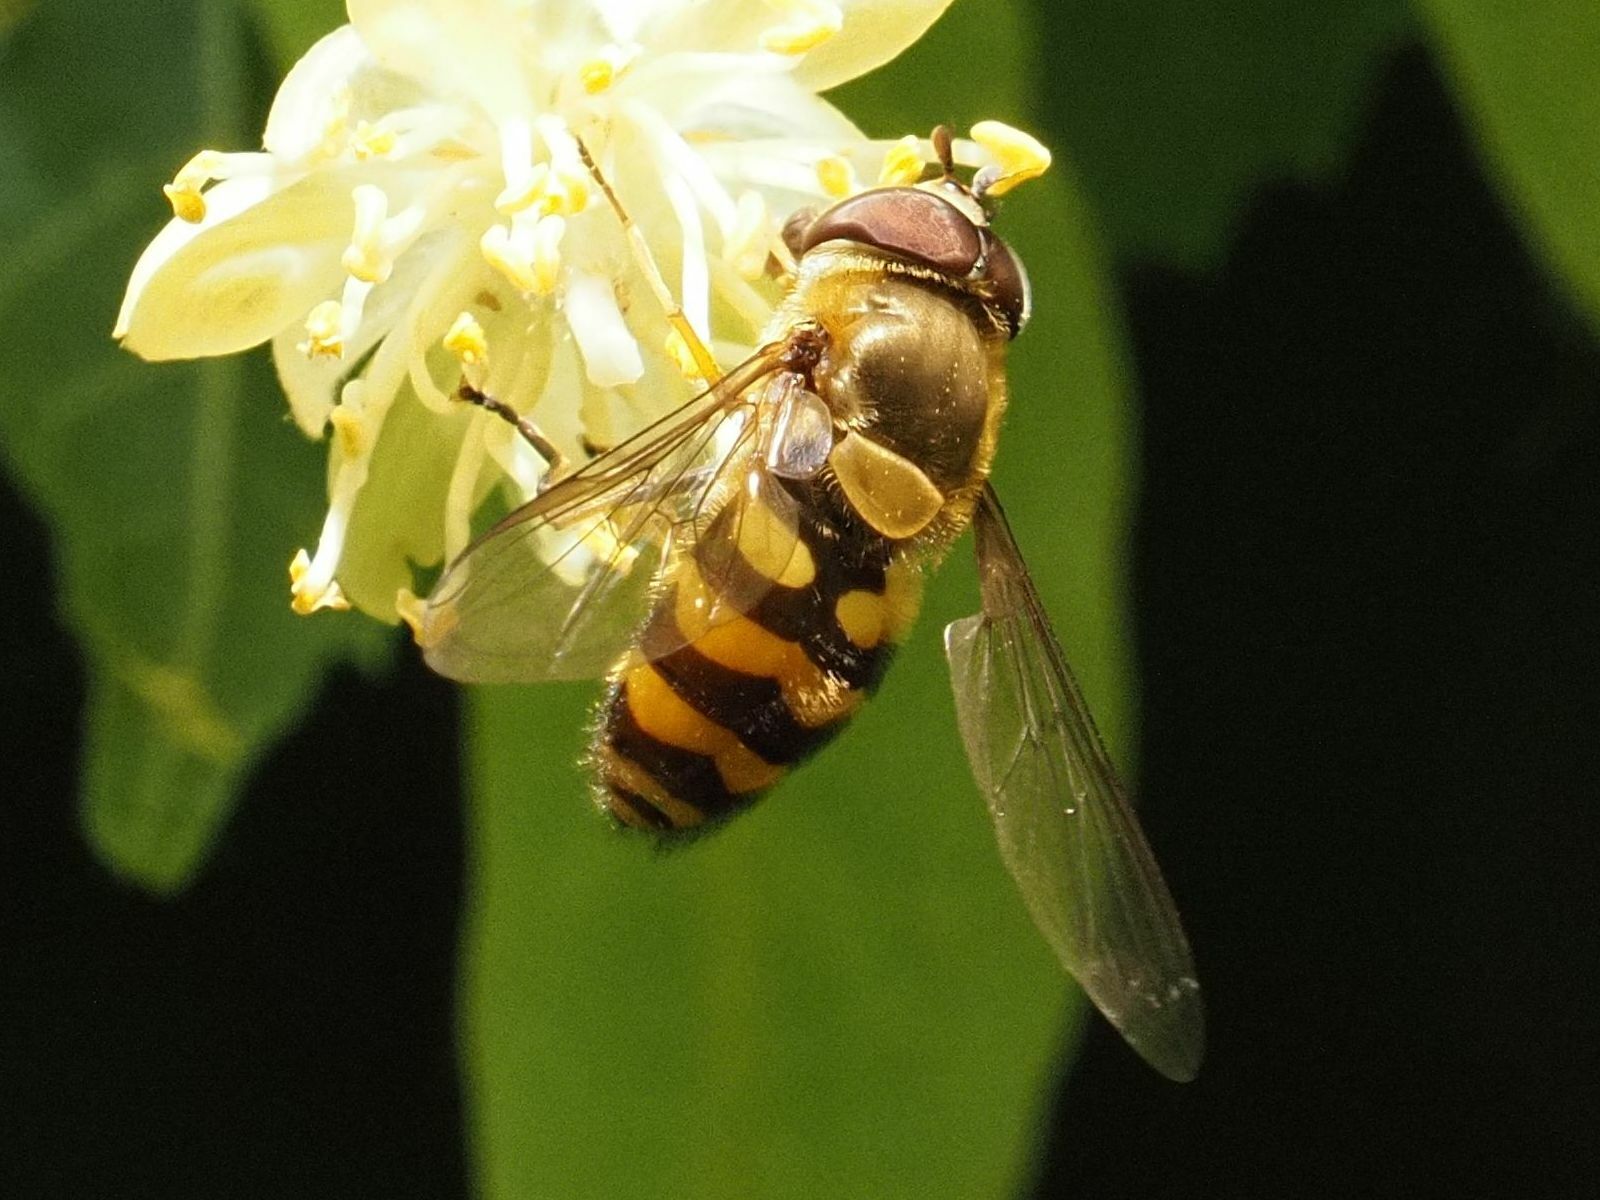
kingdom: Animalia
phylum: Arthropoda
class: Insecta
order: Diptera
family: Syrphidae
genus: Syrphus
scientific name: Syrphus torvus
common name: Hairy-eyed flower fly
